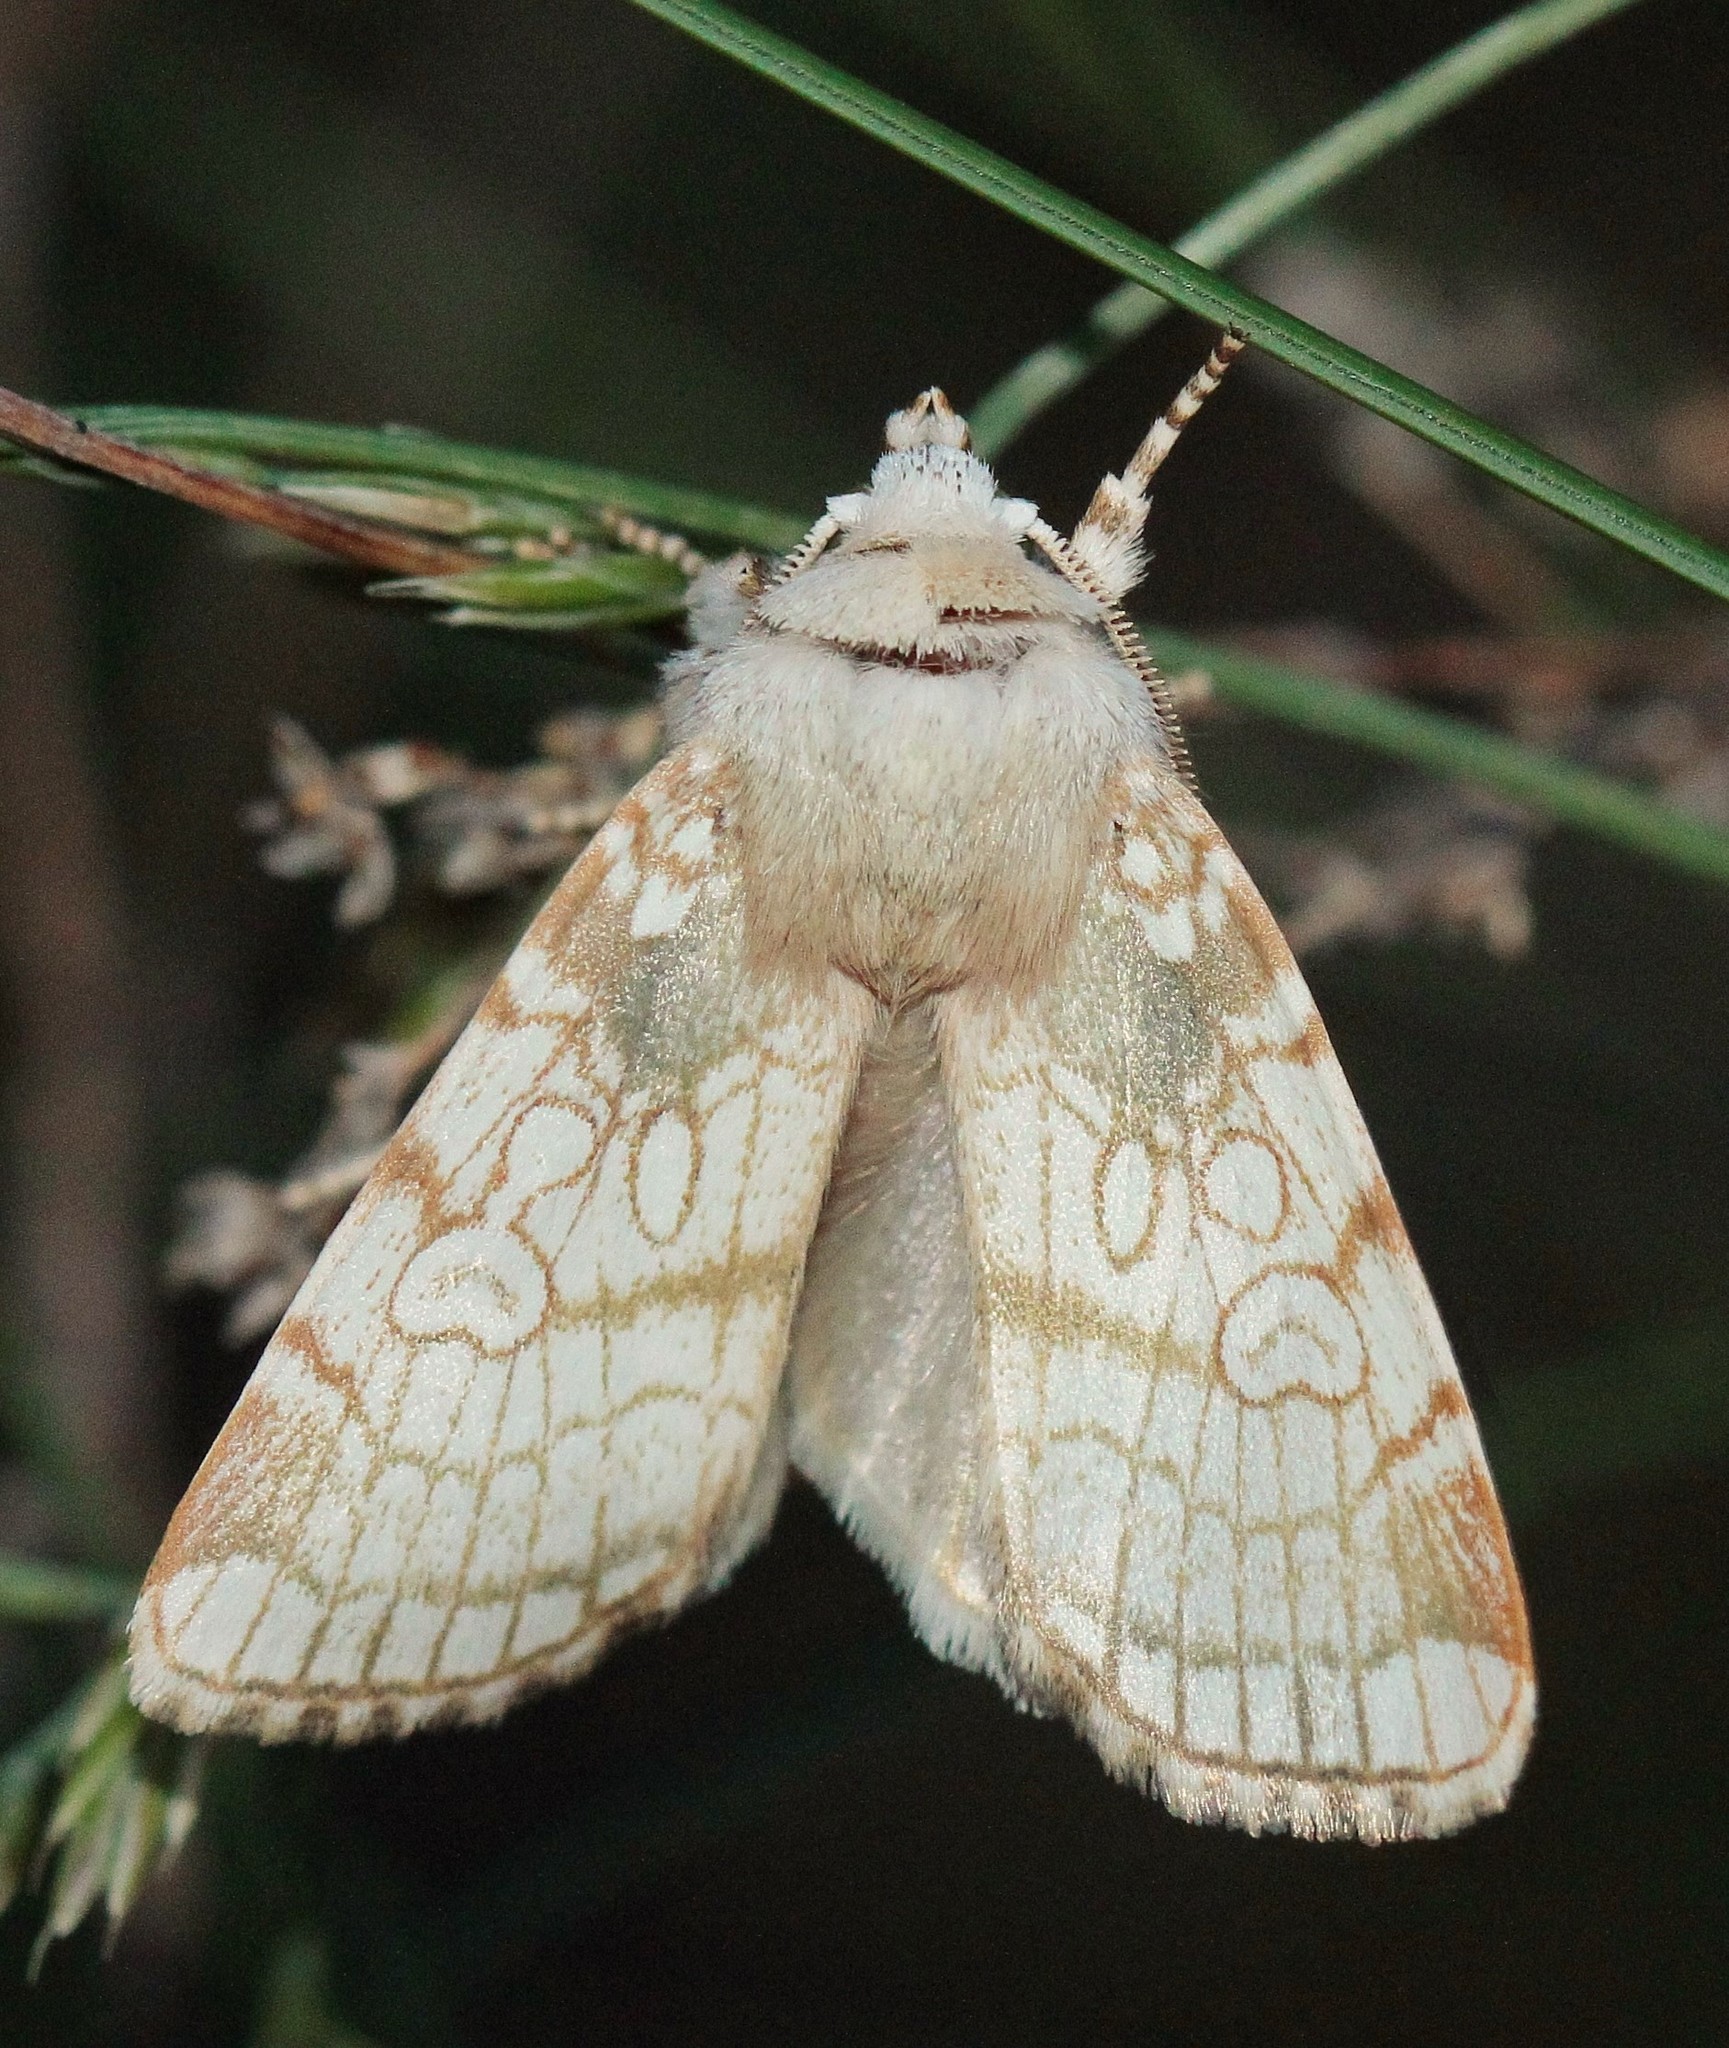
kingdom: Animalia
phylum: Arthropoda
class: Insecta
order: Lepidoptera
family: Noctuidae
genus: Dicycla
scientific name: Dicycla oo
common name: Heart moth
